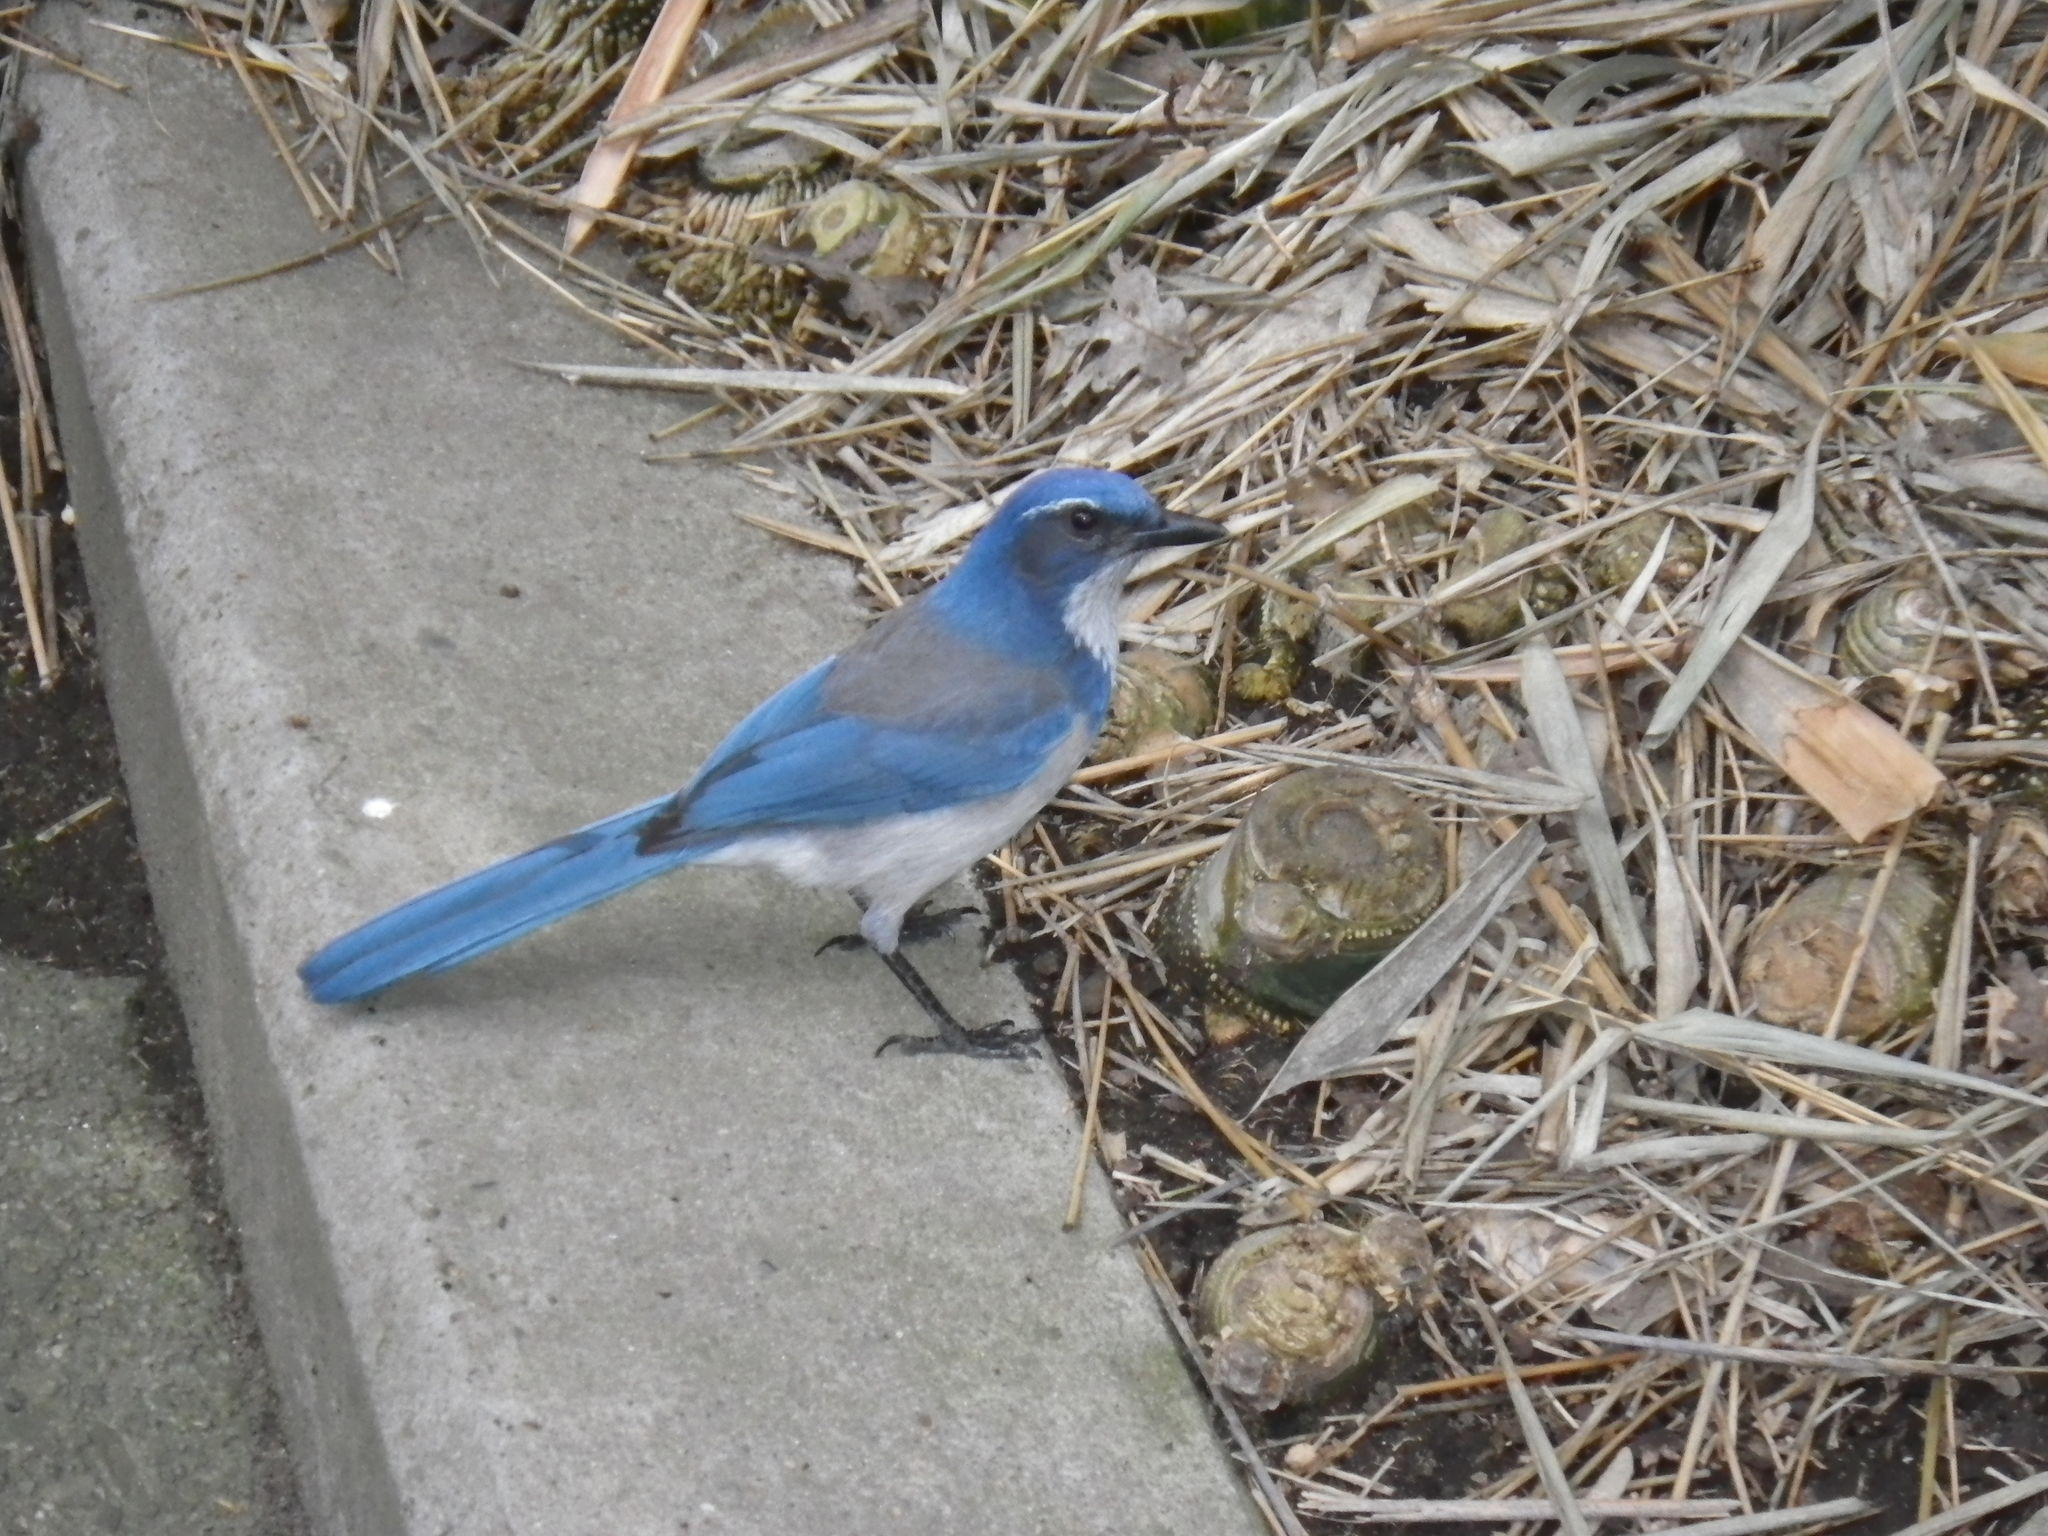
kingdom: Animalia
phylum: Chordata
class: Aves
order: Passeriformes
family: Corvidae
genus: Aphelocoma
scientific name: Aphelocoma californica
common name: California scrub-jay
